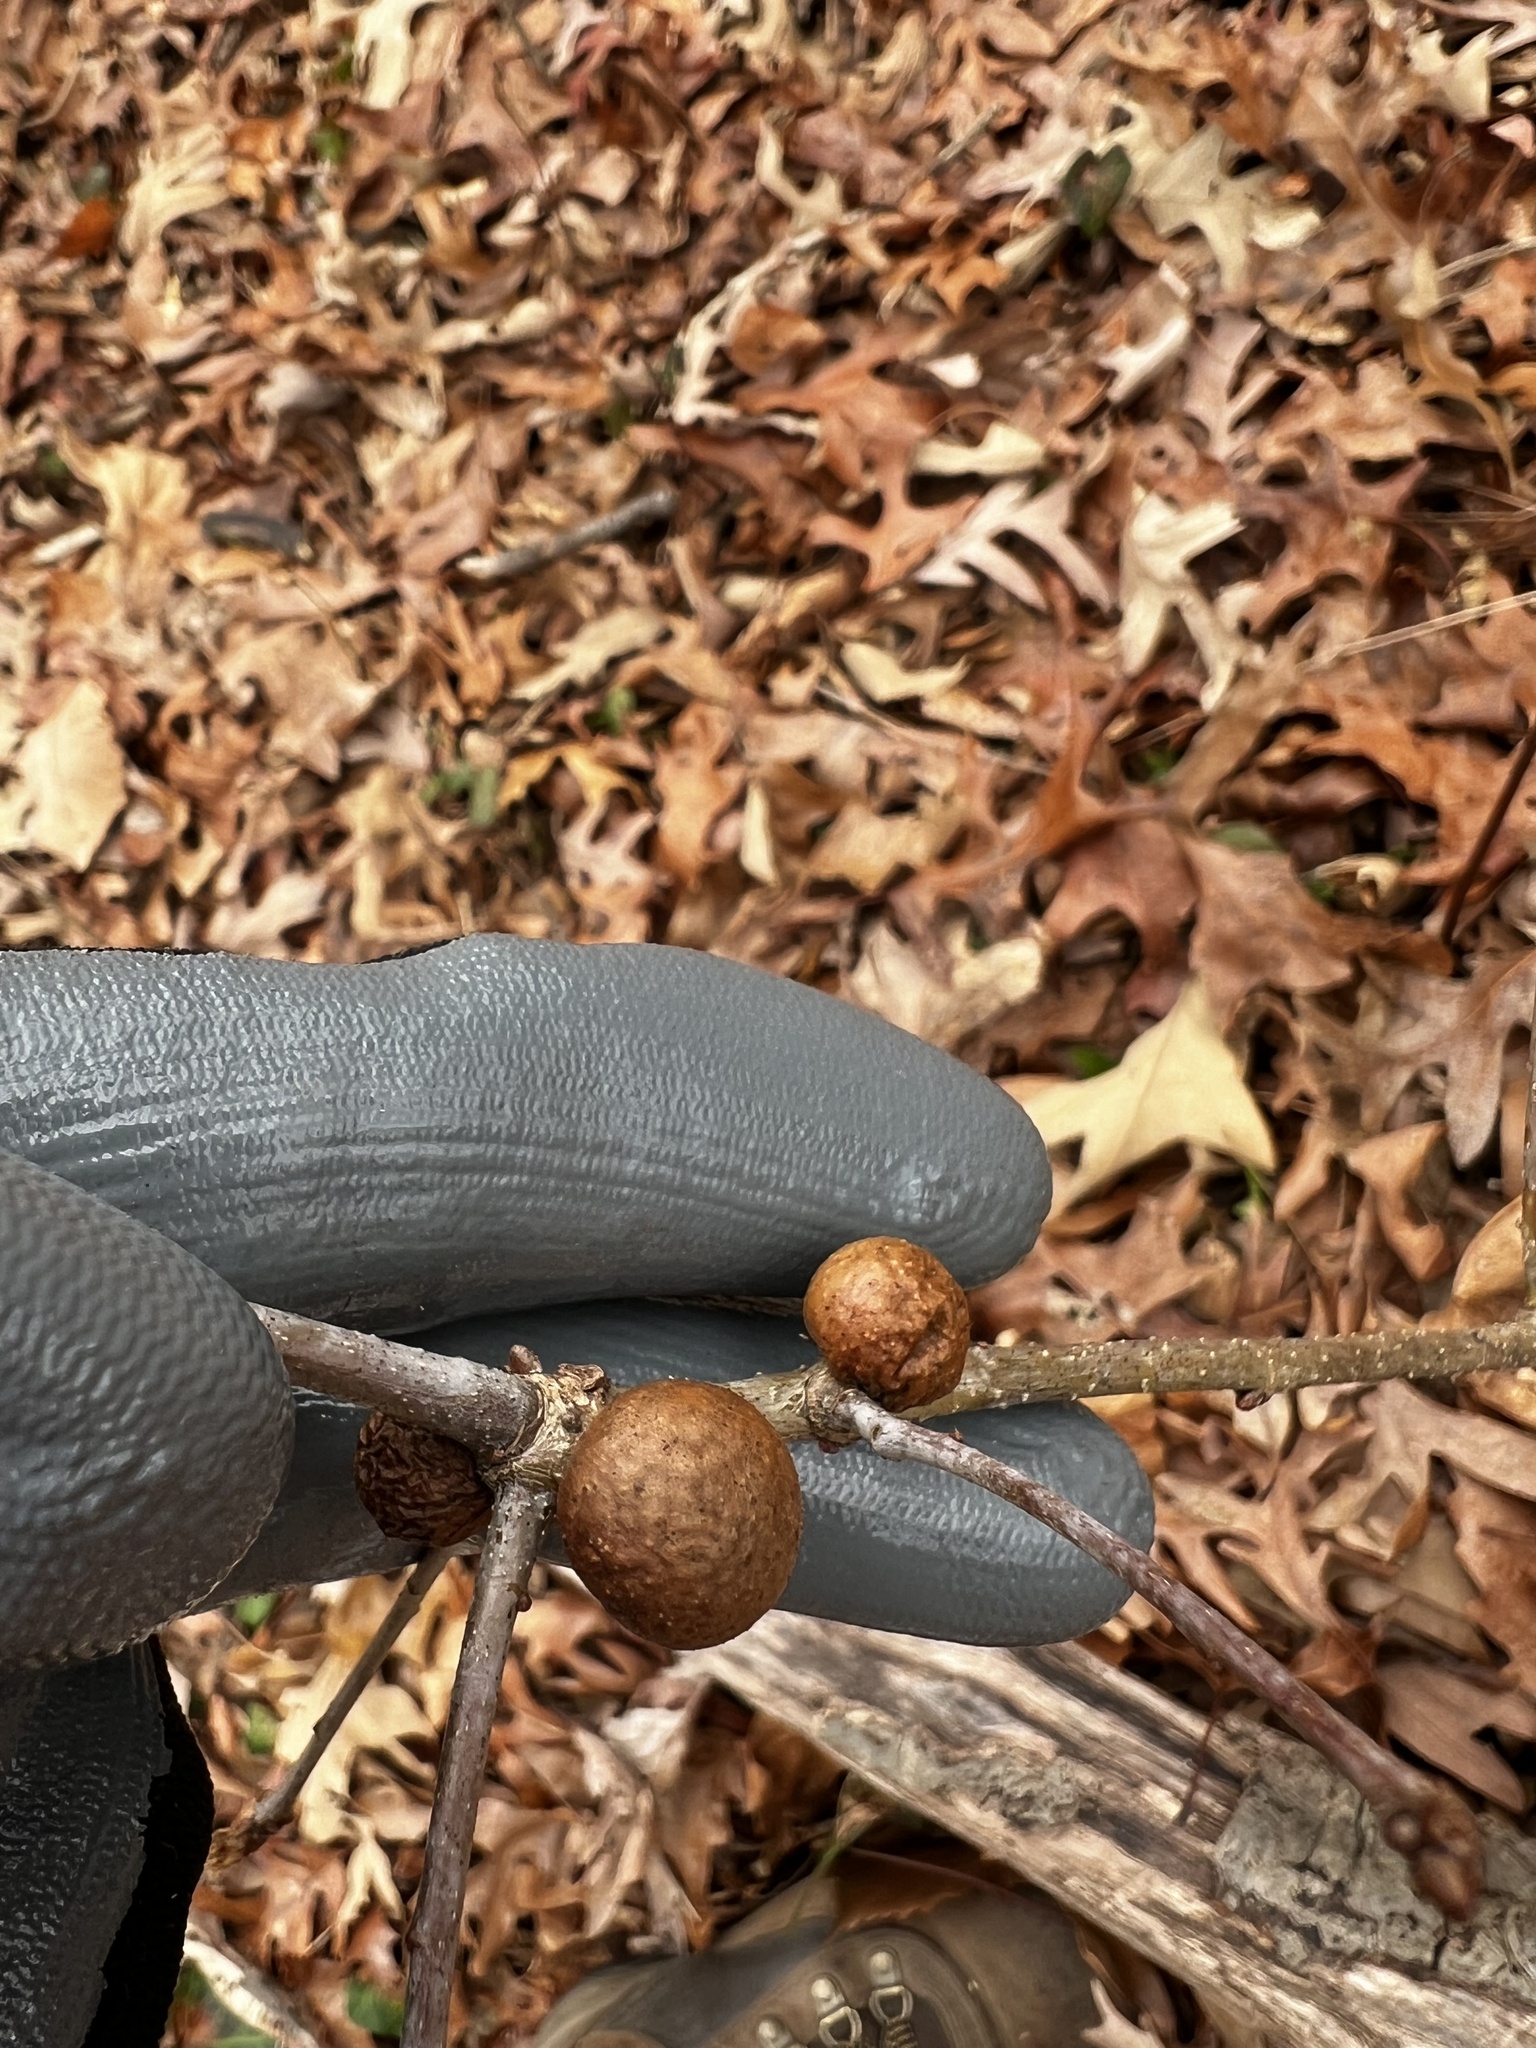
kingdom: Animalia
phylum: Arthropoda
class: Insecta
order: Hymenoptera
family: Cynipidae
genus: Disholcaspis
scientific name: Disholcaspis quercusglobulus
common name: Round bullet gall wasp
